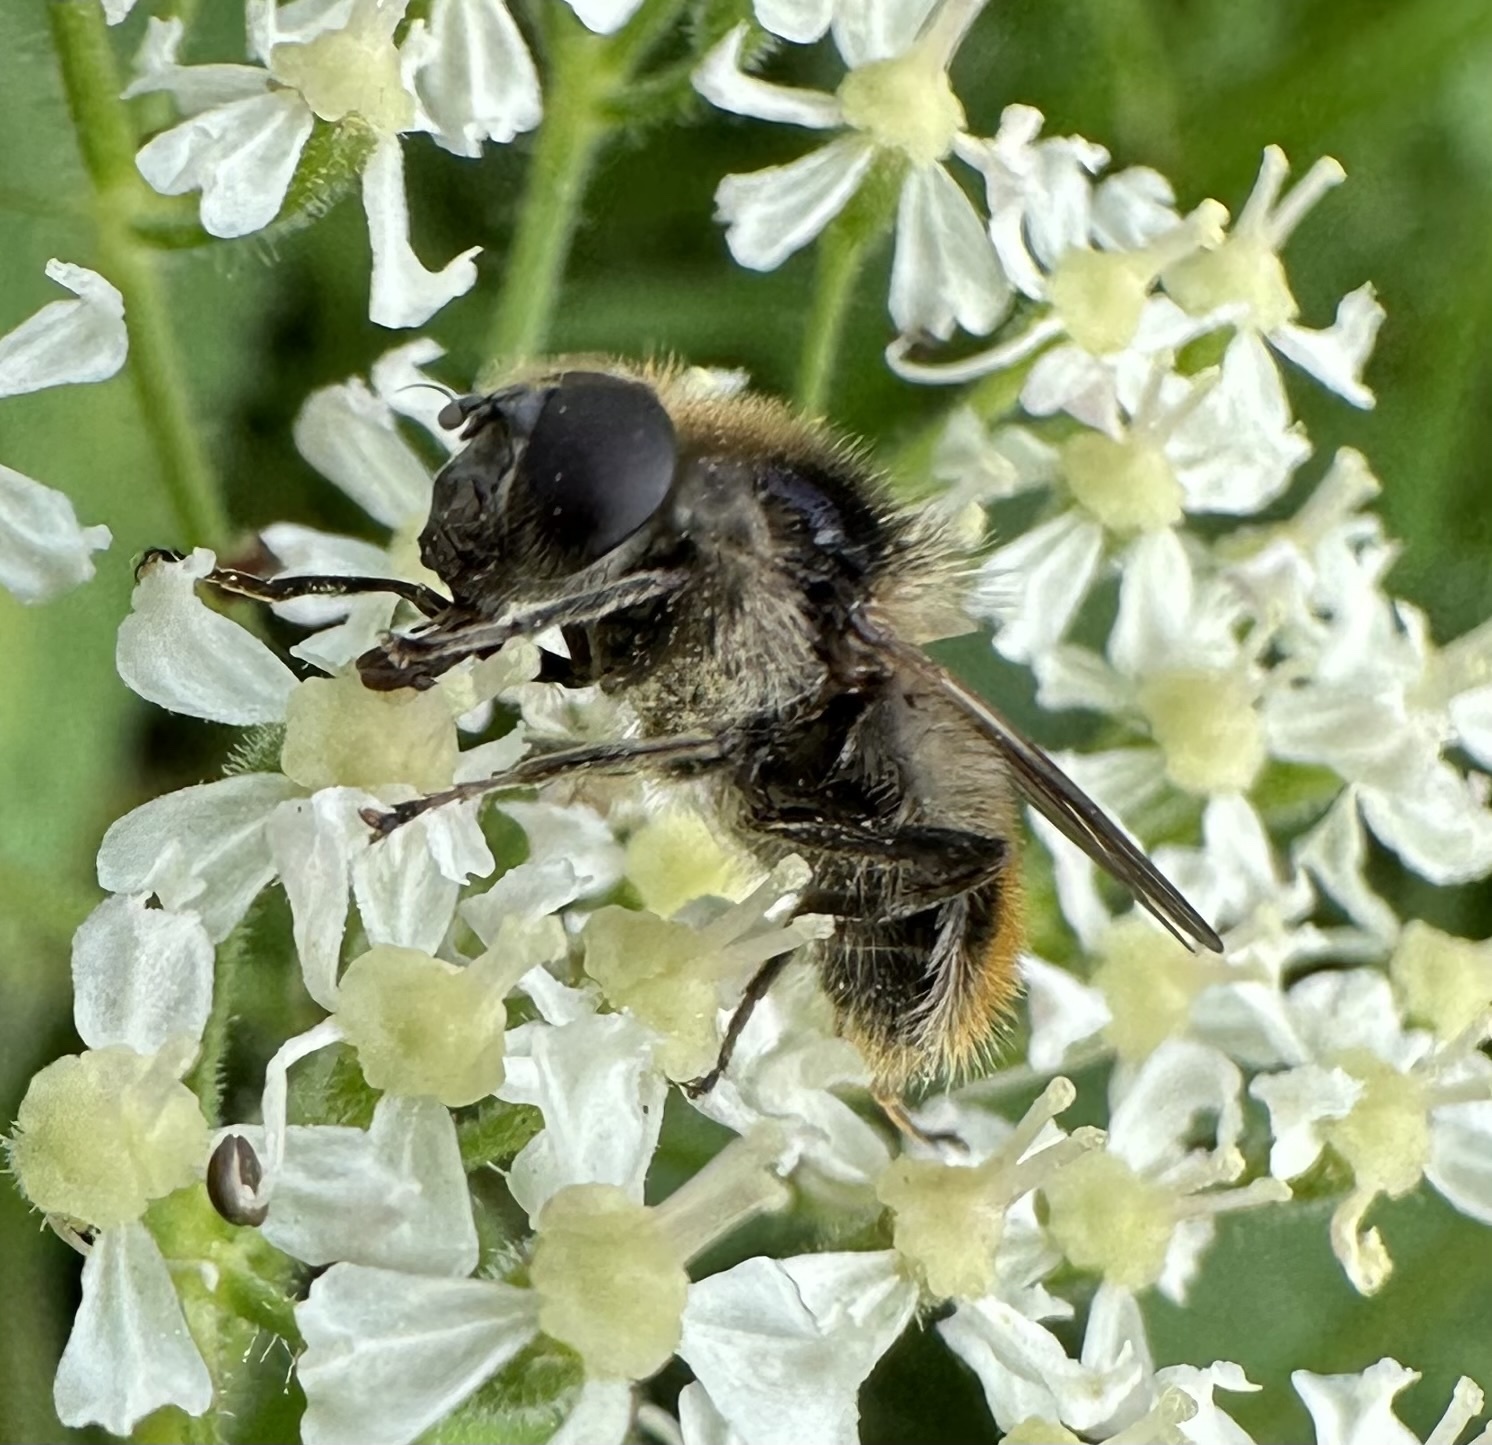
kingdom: Animalia
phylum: Arthropoda
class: Insecta
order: Diptera
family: Syrphidae
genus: Cheilosia
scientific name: Cheilosia illustrata
